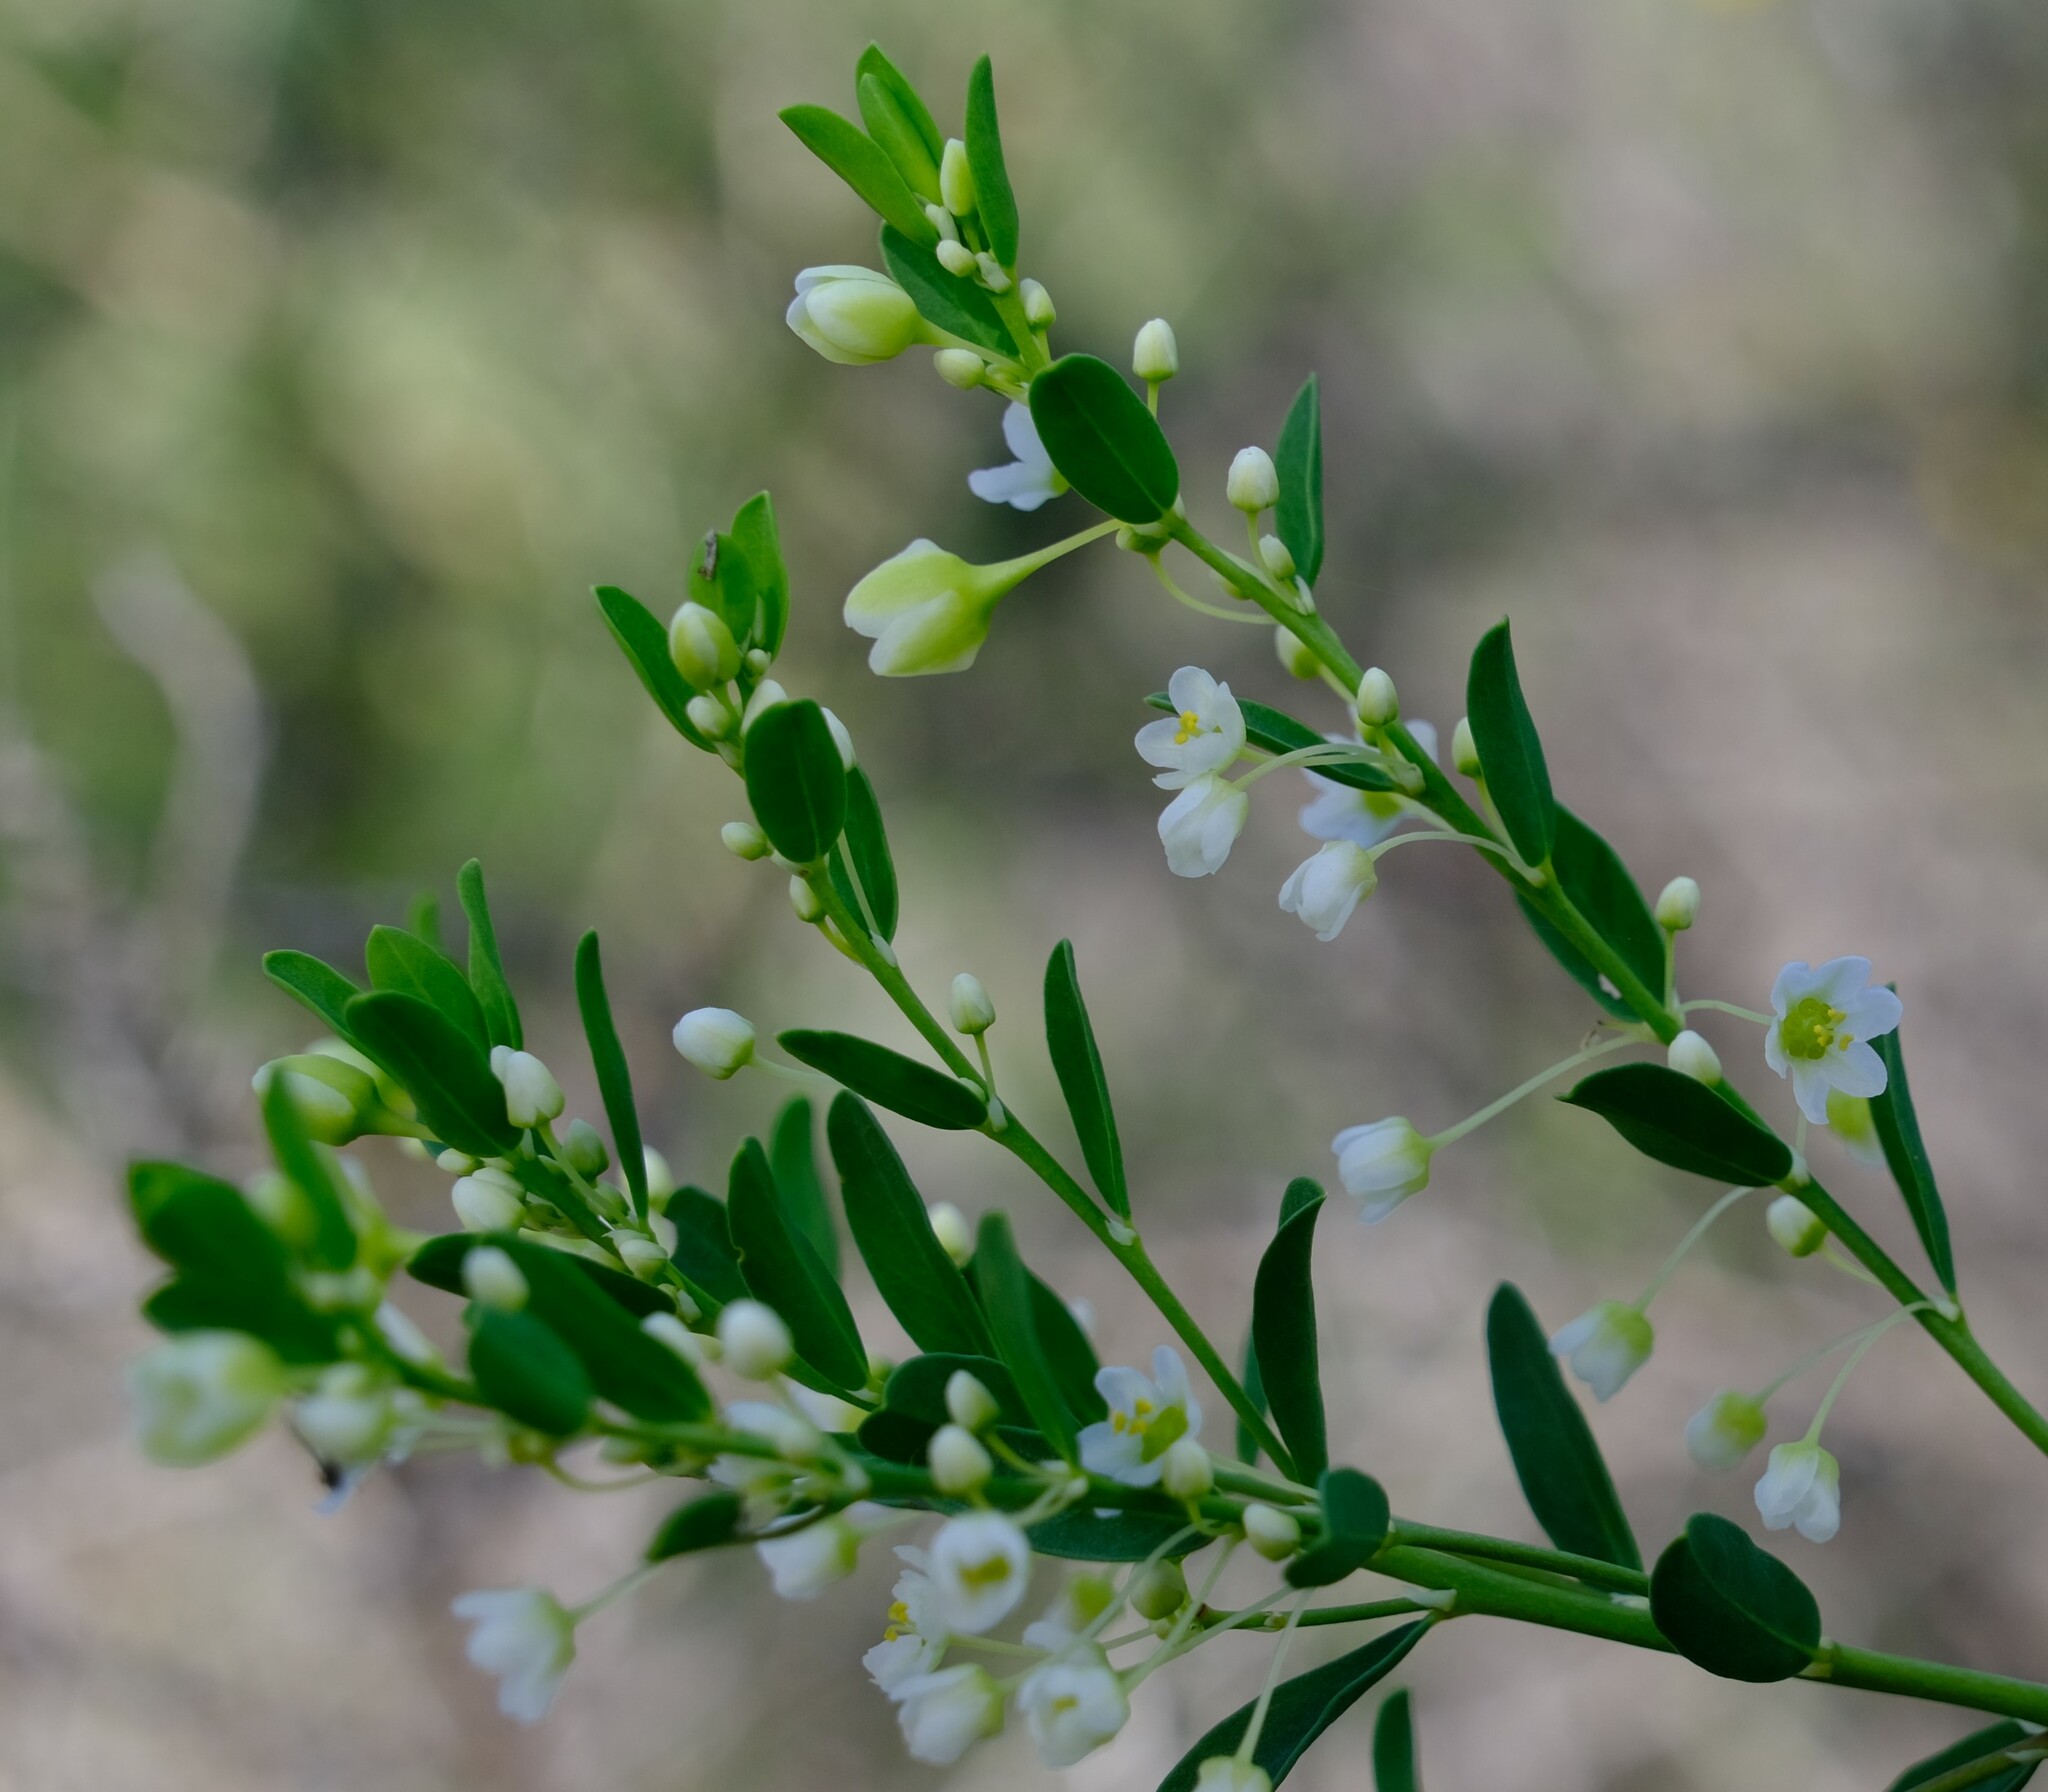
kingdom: Plantae
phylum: Tracheophyta
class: Magnoliopsida
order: Malpighiales
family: Phyllanthaceae
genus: Phyllanthus
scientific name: Phyllanthus calycinus
